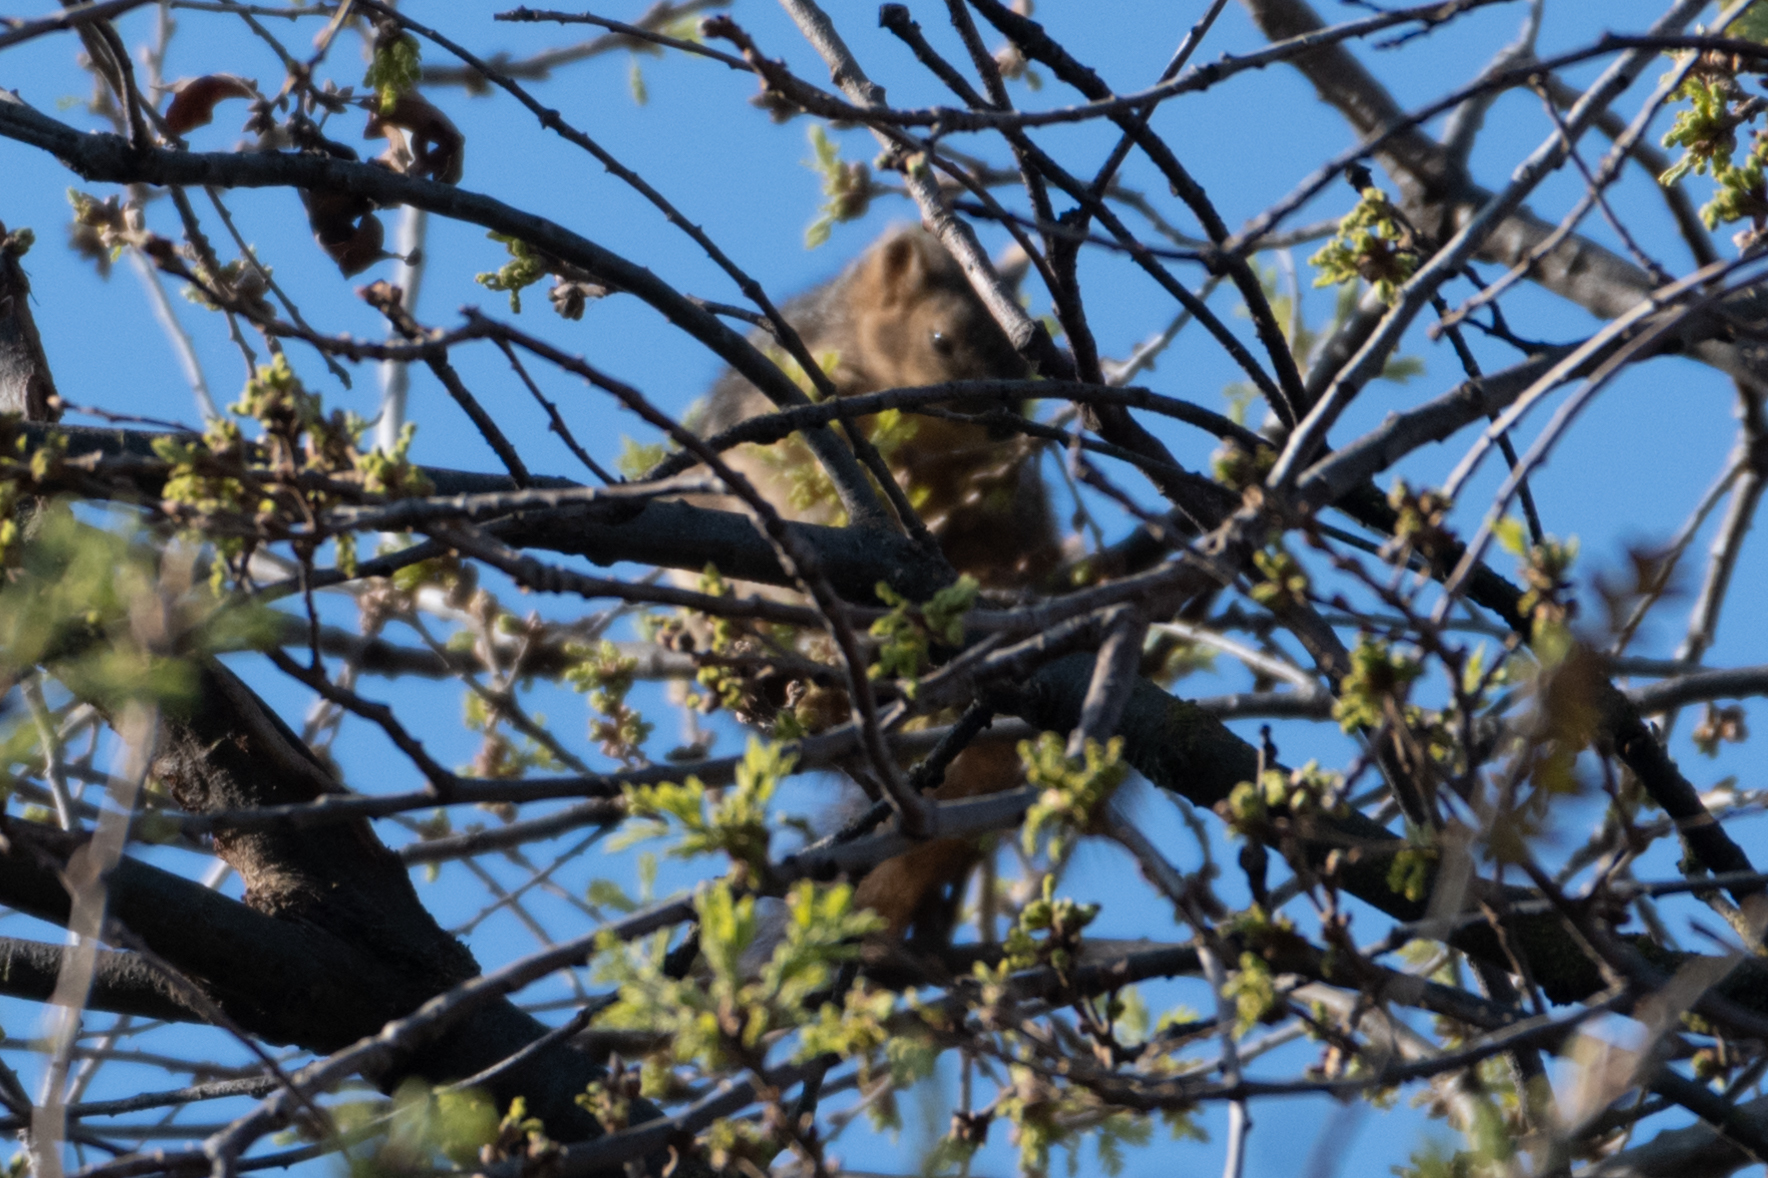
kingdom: Animalia
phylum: Chordata
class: Mammalia
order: Rodentia
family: Sciuridae
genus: Sciurus
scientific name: Sciurus niger
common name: Fox squirrel
